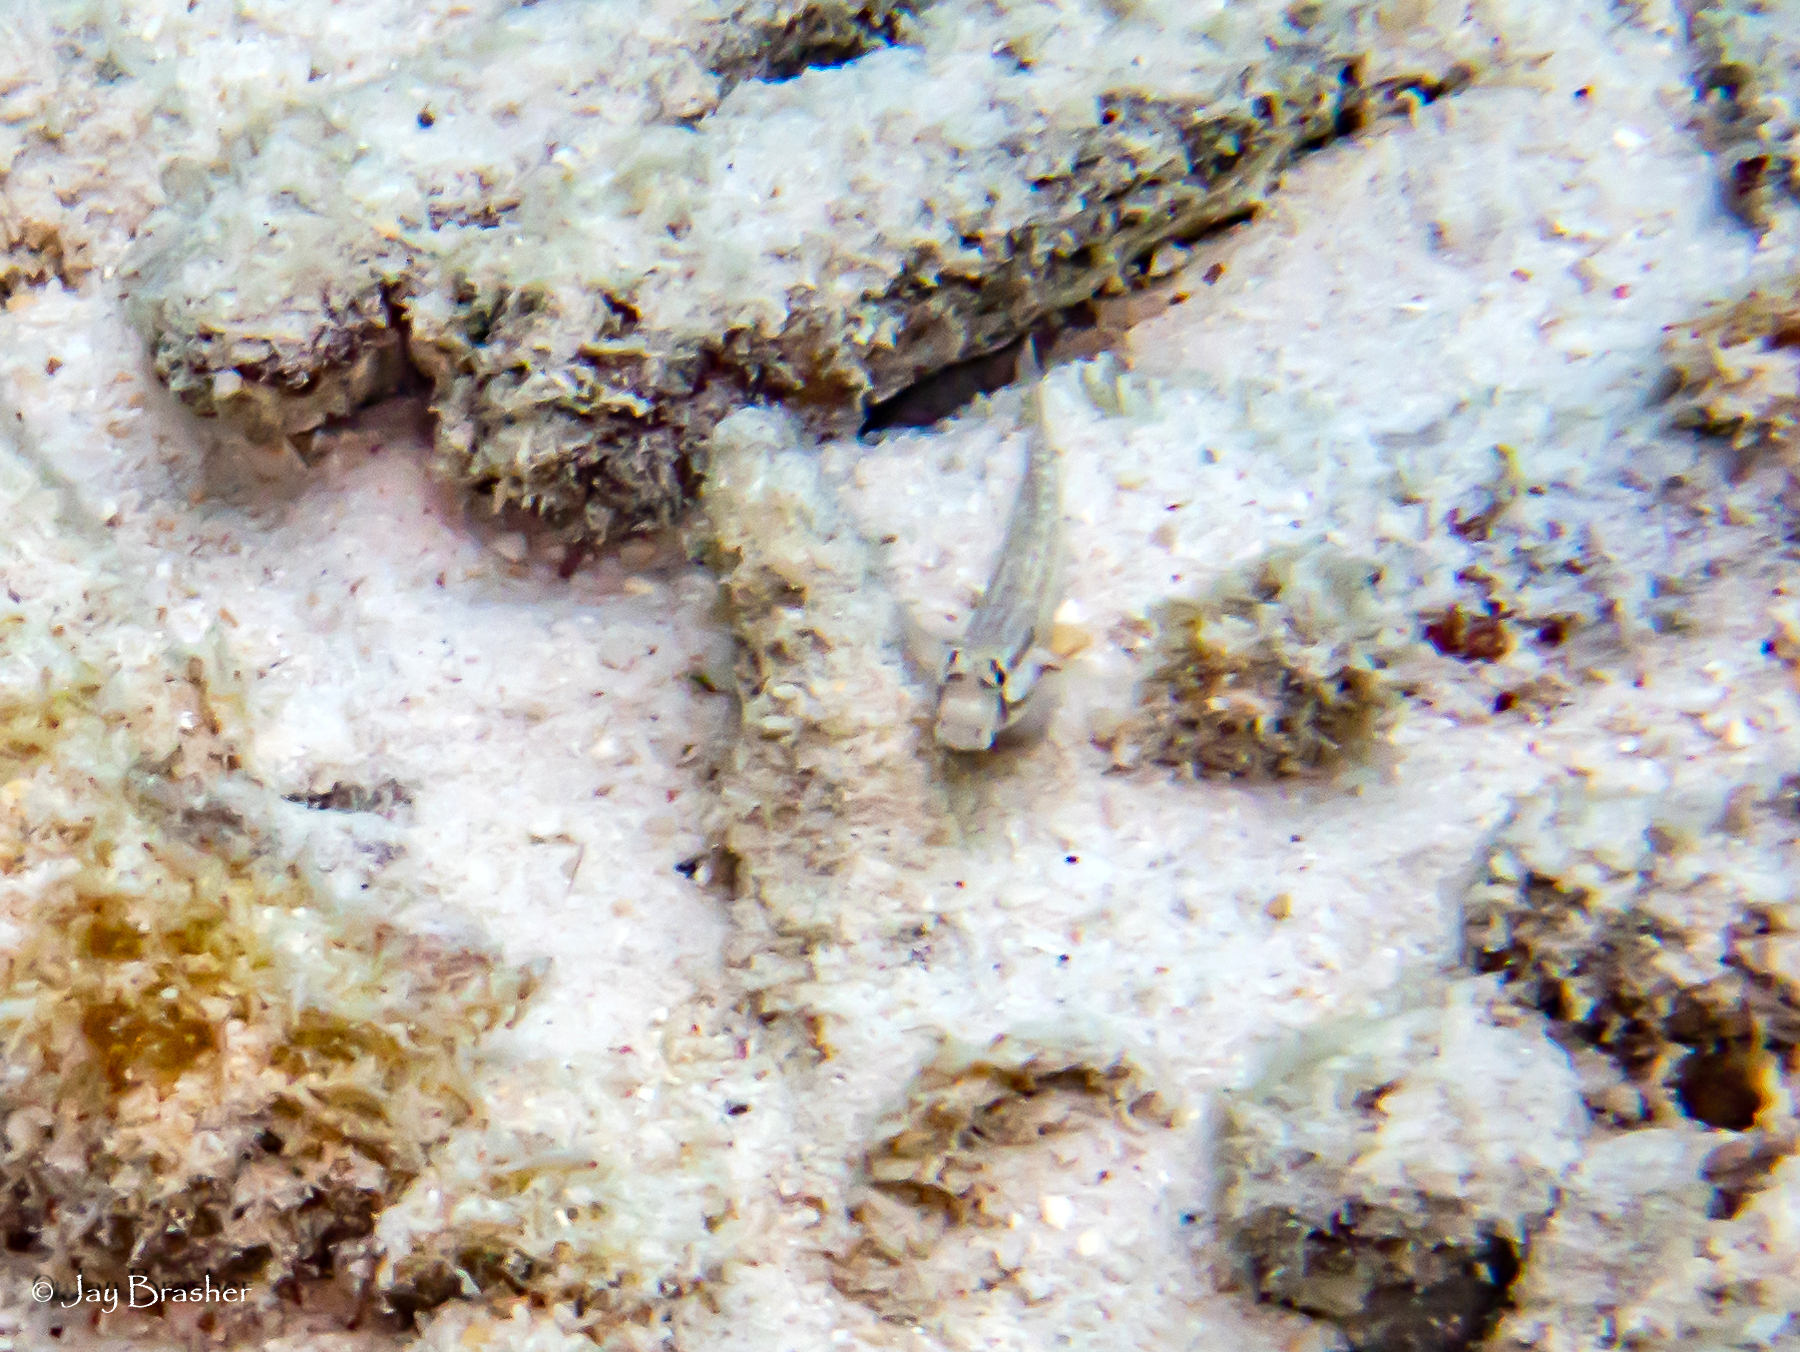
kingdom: Animalia
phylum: Chordata
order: Perciformes
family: Gobiidae
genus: Gnatholepis
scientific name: Gnatholepis thompsoni
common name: Goldspot goby
